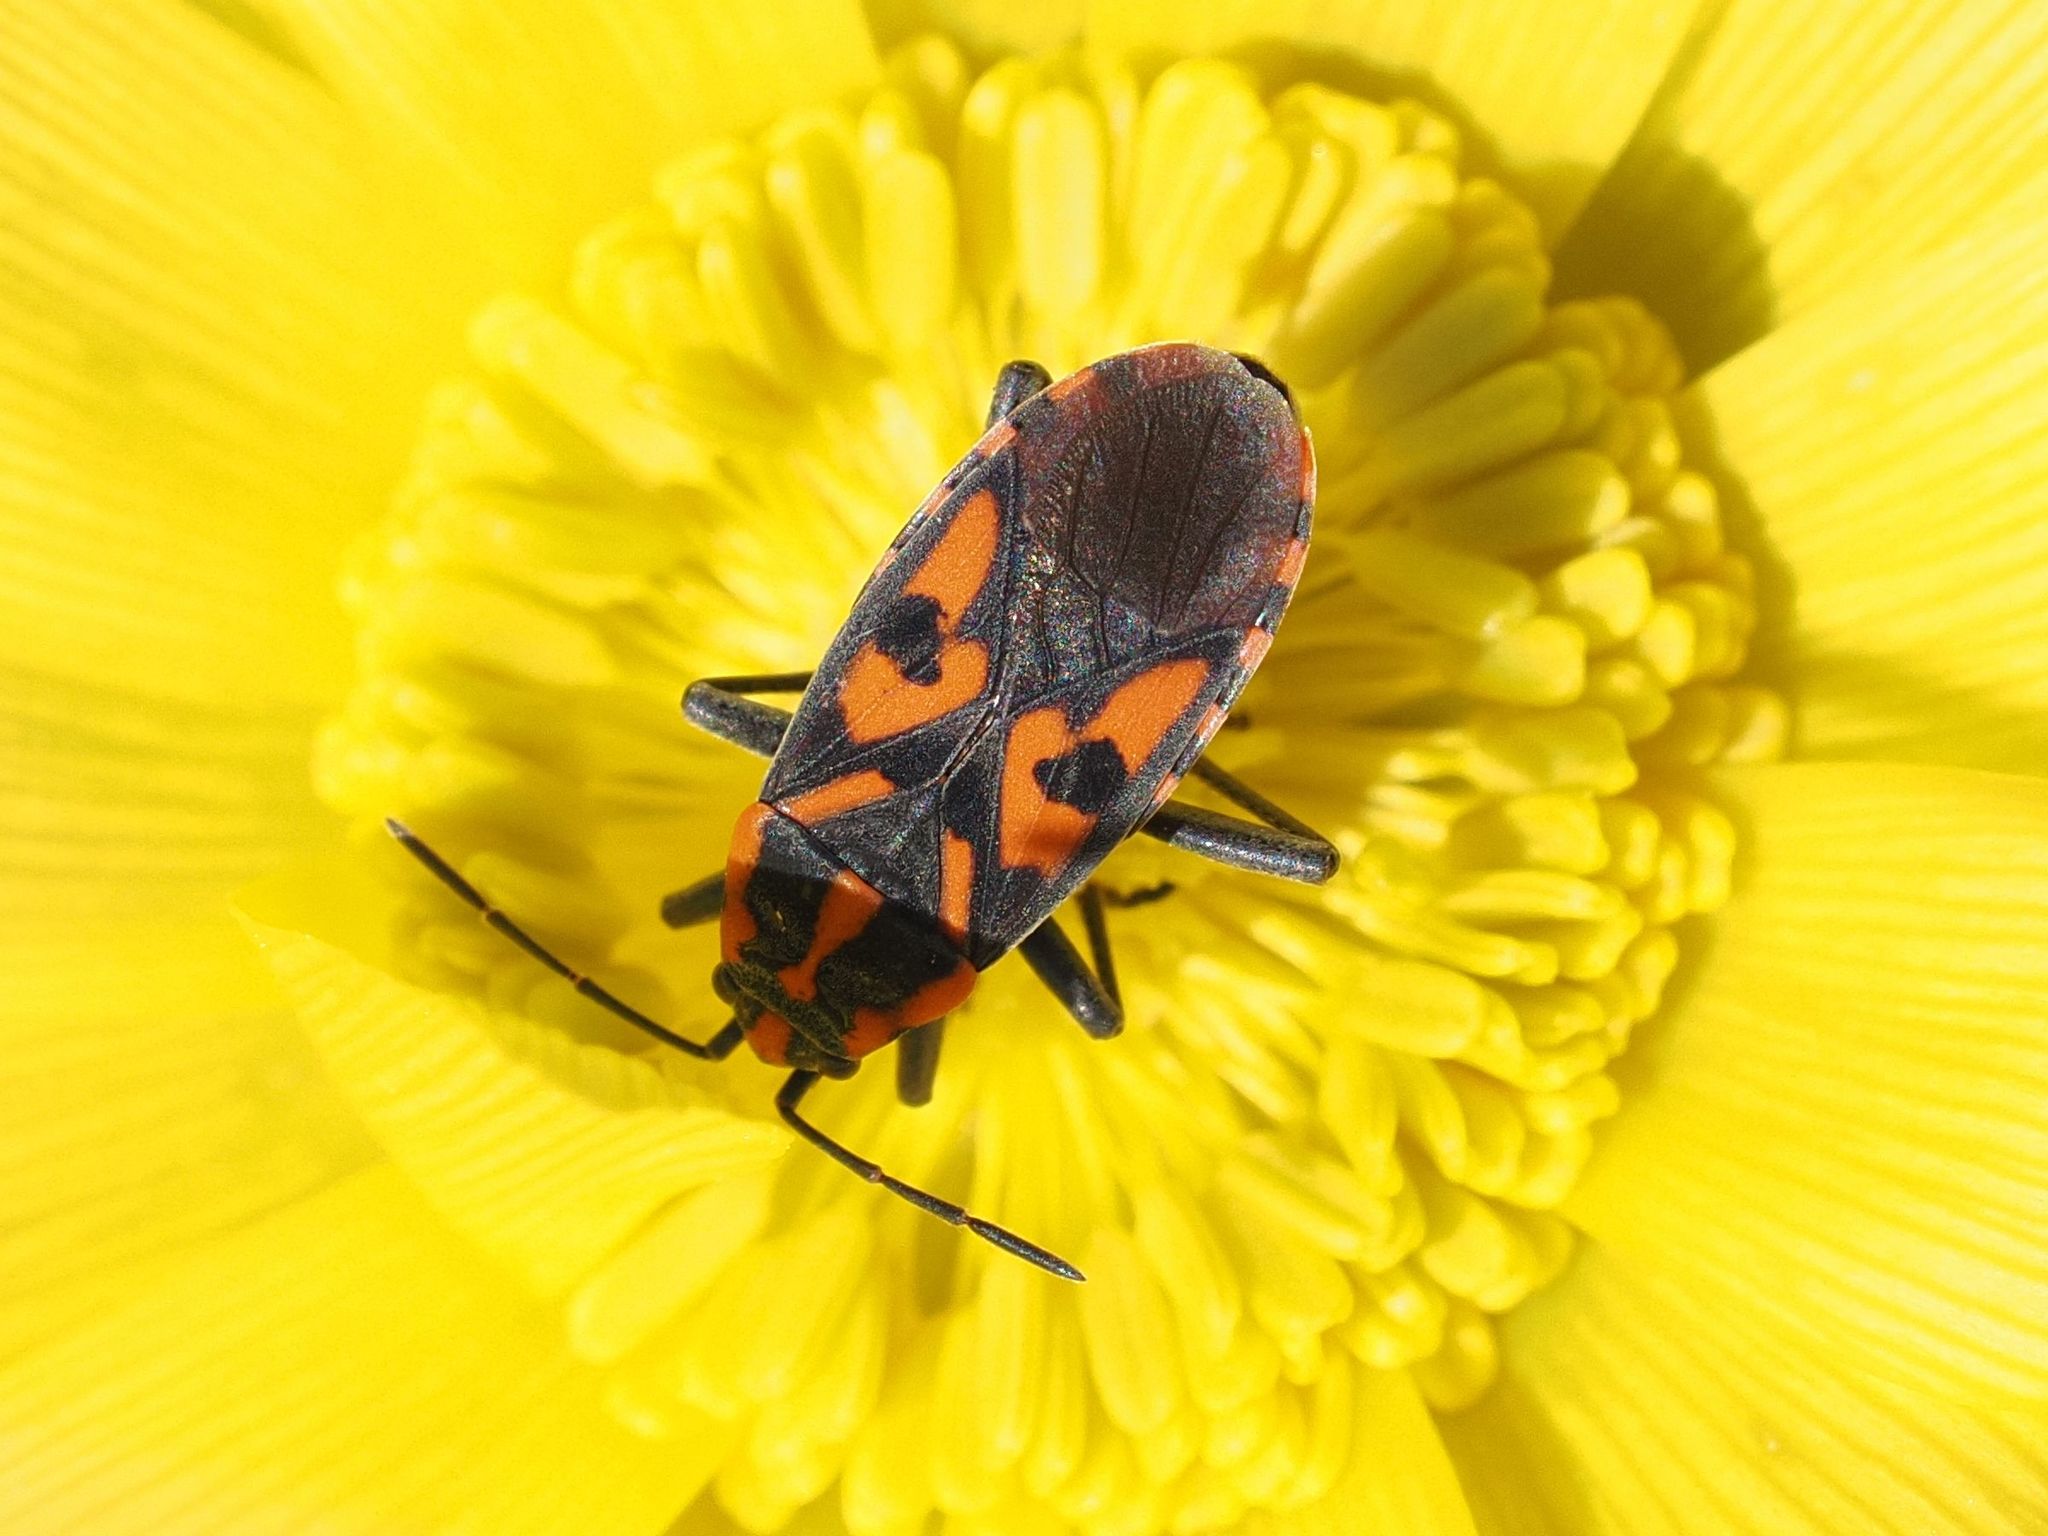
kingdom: Animalia
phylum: Arthropoda
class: Insecta
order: Hemiptera
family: Lygaeidae
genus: Spilostethus
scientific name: Spilostethus saxatilis
